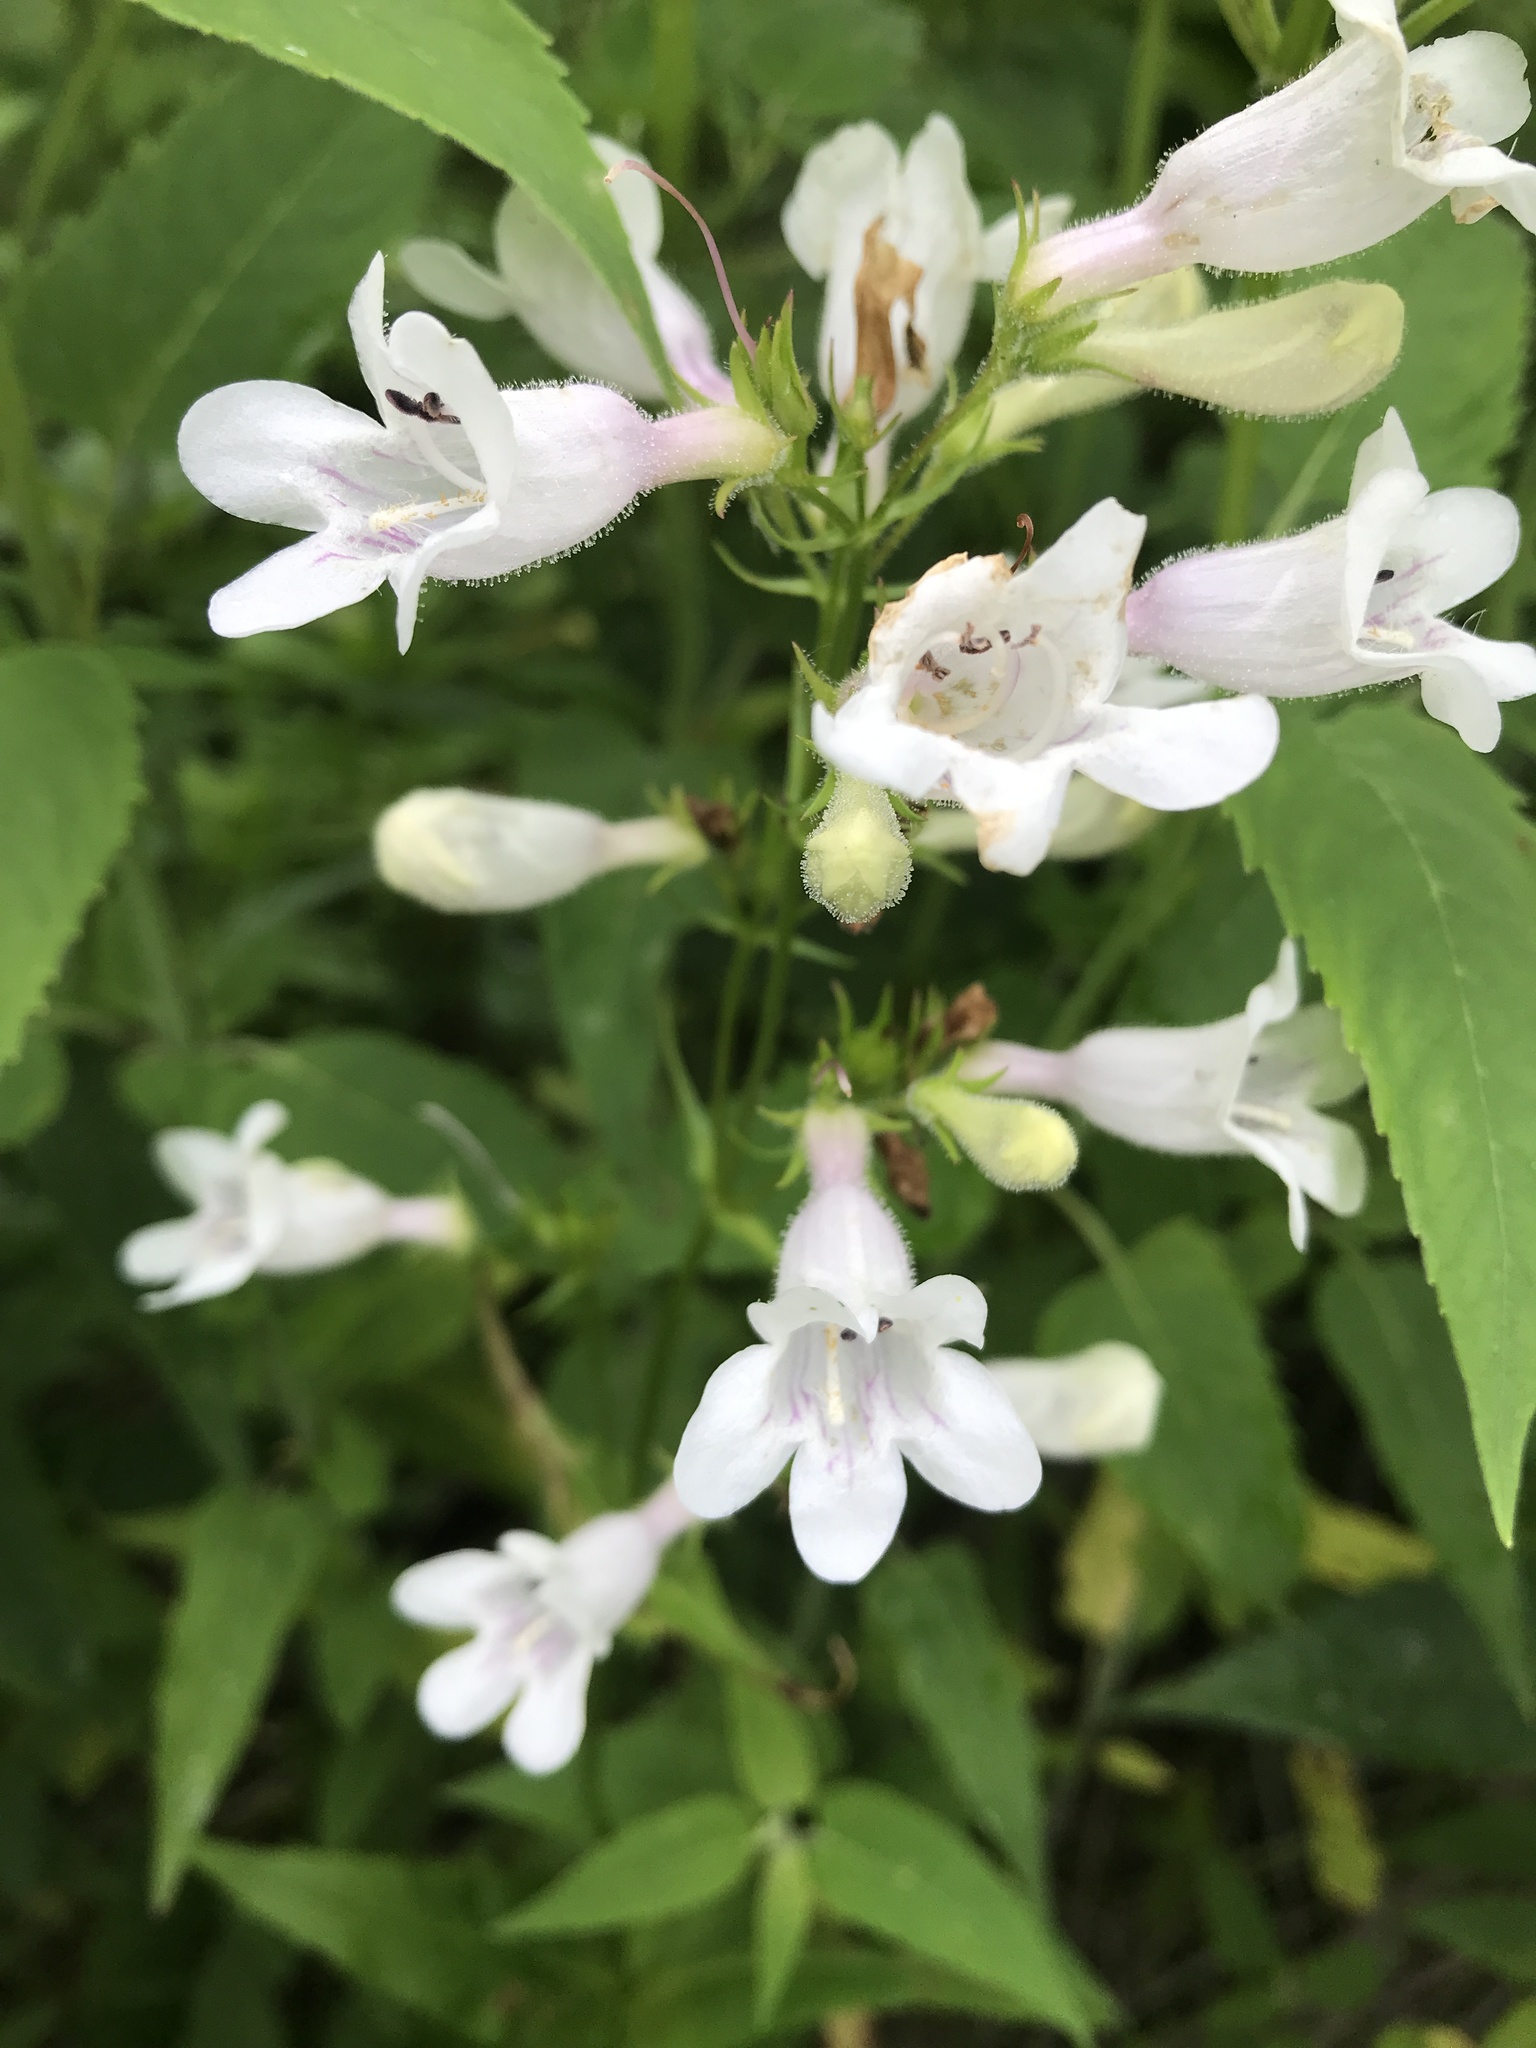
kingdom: Plantae
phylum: Tracheophyta
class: Magnoliopsida
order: Lamiales
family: Plantaginaceae
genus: Penstemon
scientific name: Penstemon digitalis
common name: Foxglove beardtongue
